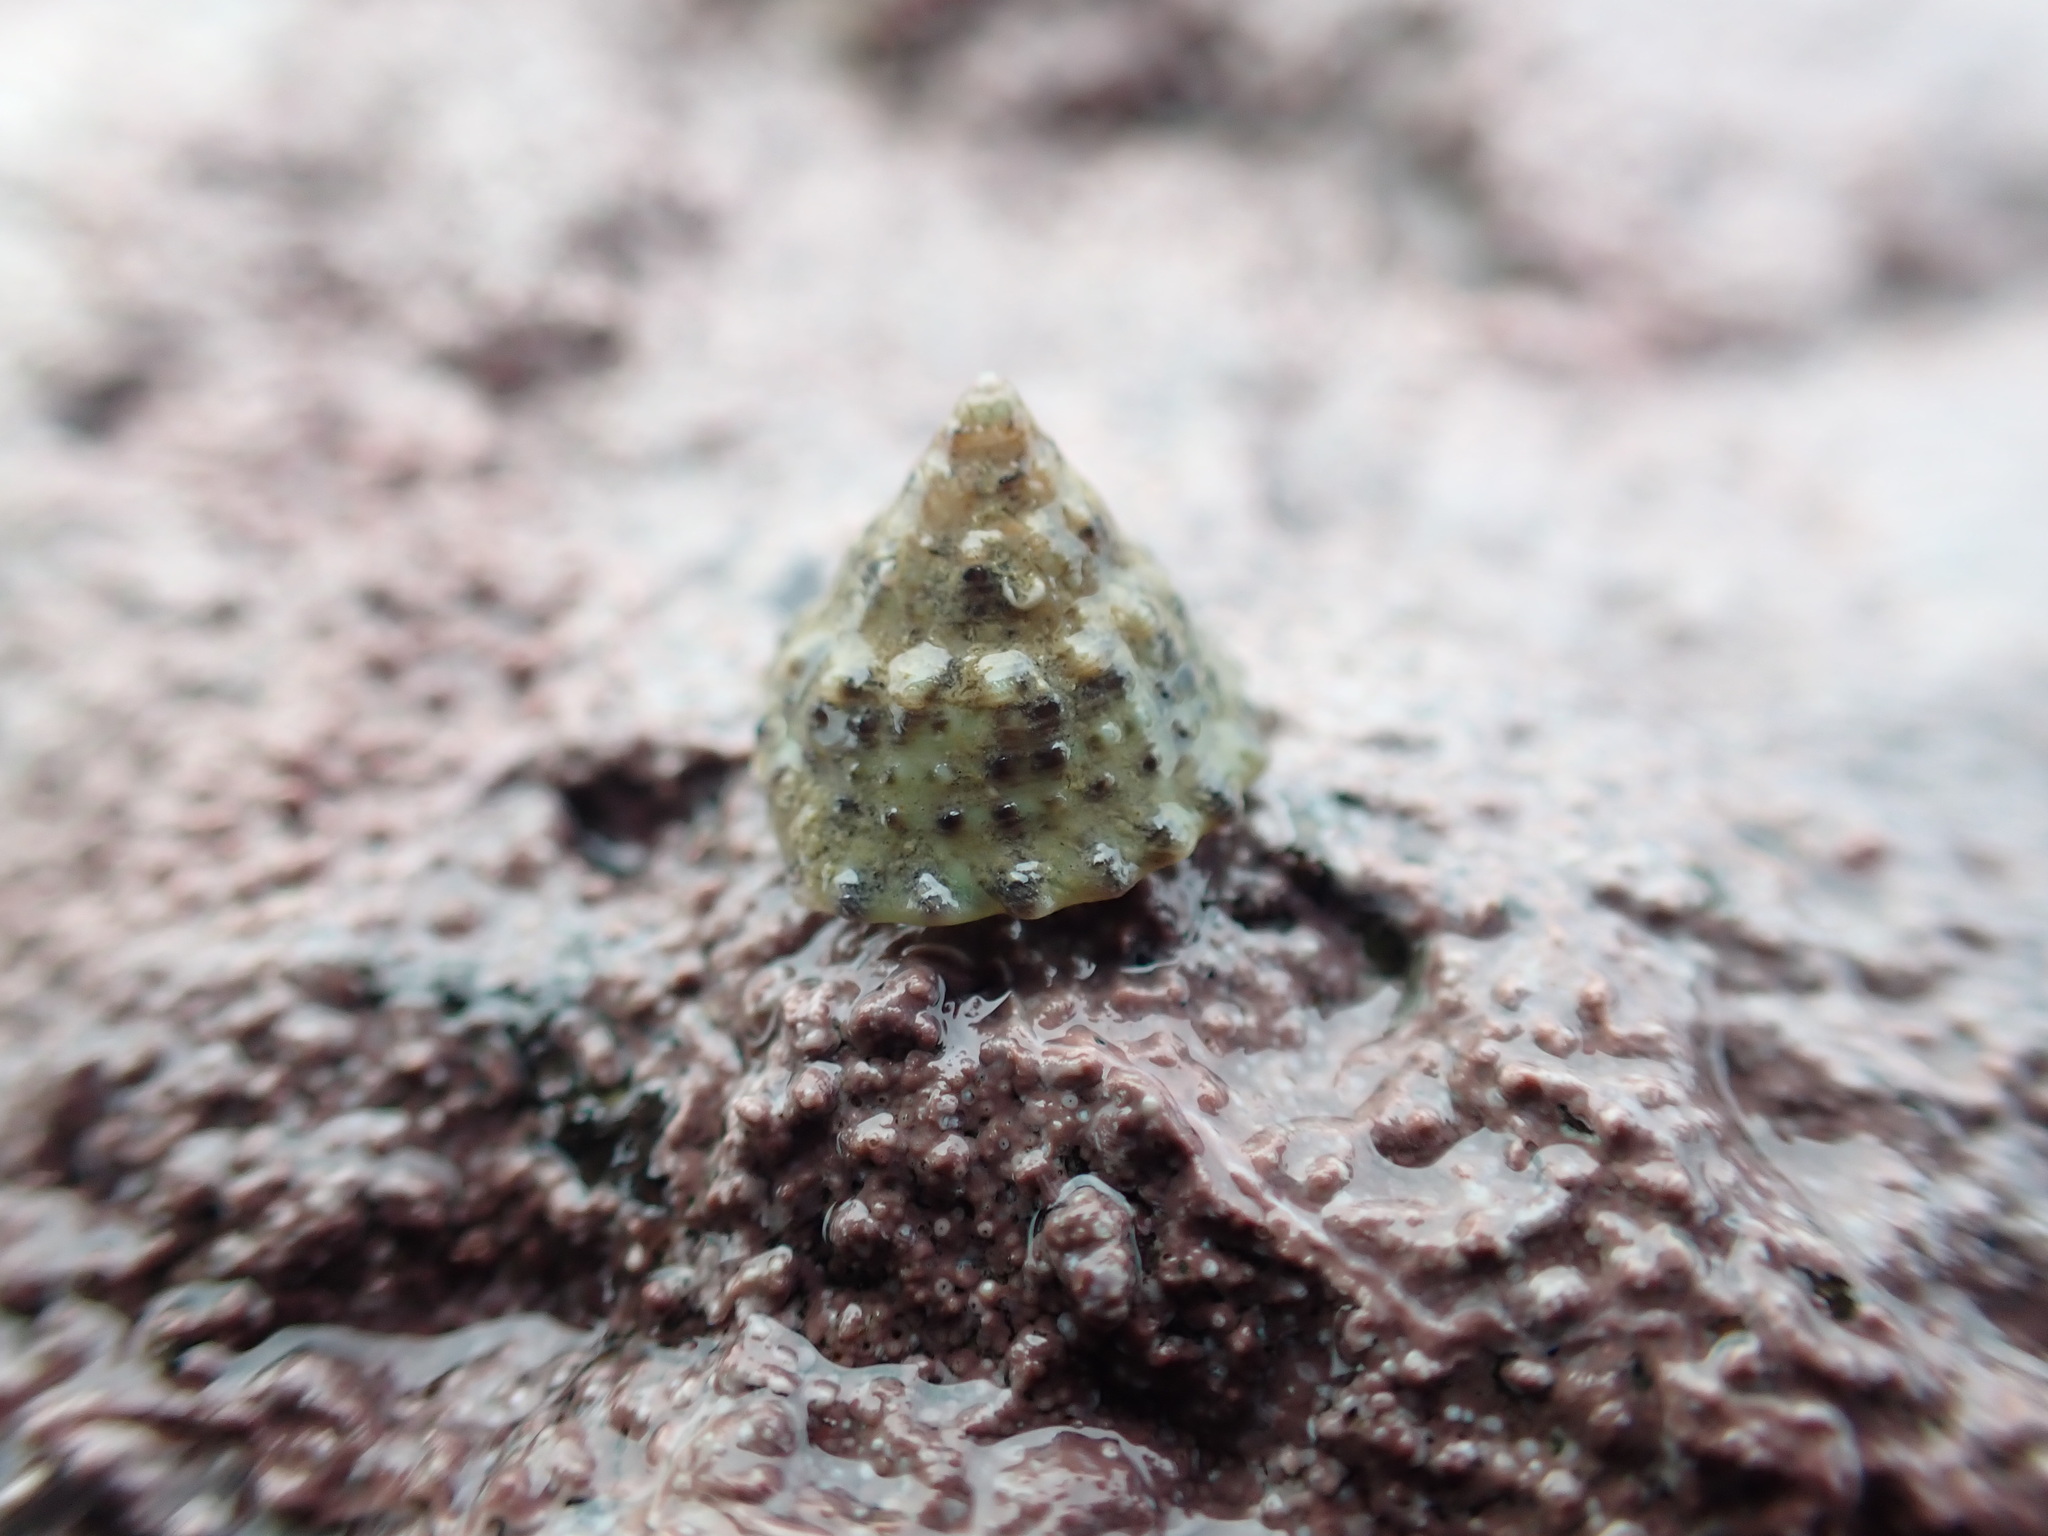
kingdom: Animalia
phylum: Mollusca
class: Gastropoda
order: Trochida
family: Trochidae
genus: Coelotrochus
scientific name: Coelotrochus viridis
